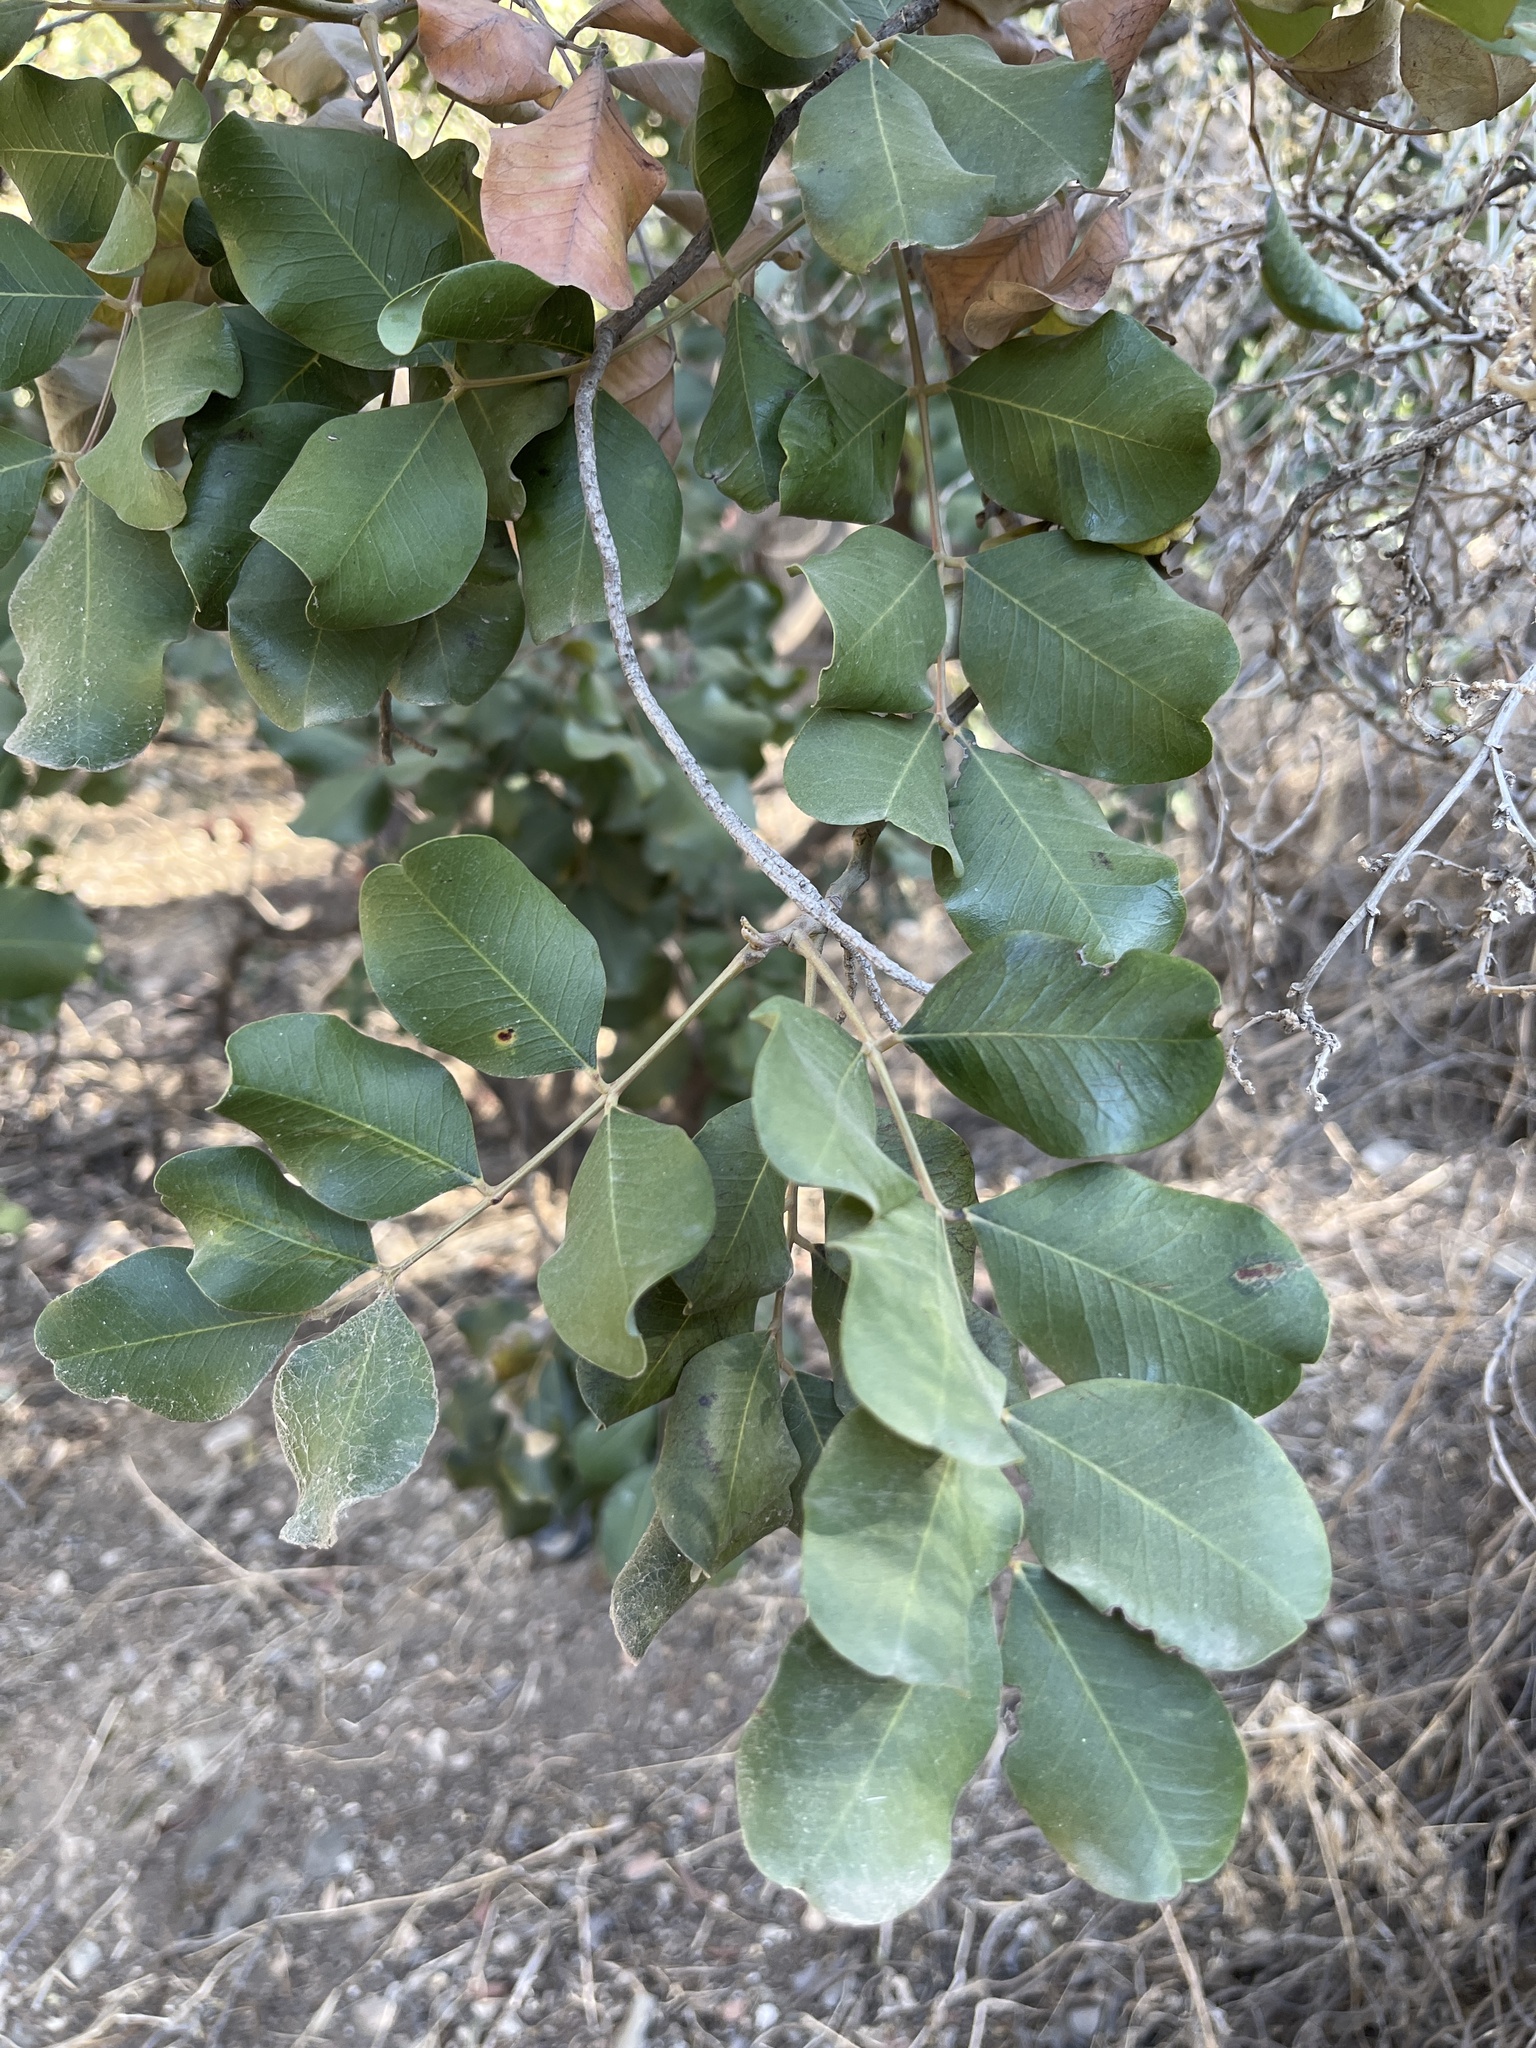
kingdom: Plantae
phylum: Tracheophyta
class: Magnoliopsida
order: Fabales
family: Fabaceae
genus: Ceratonia
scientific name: Ceratonia siliqua
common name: Carob
